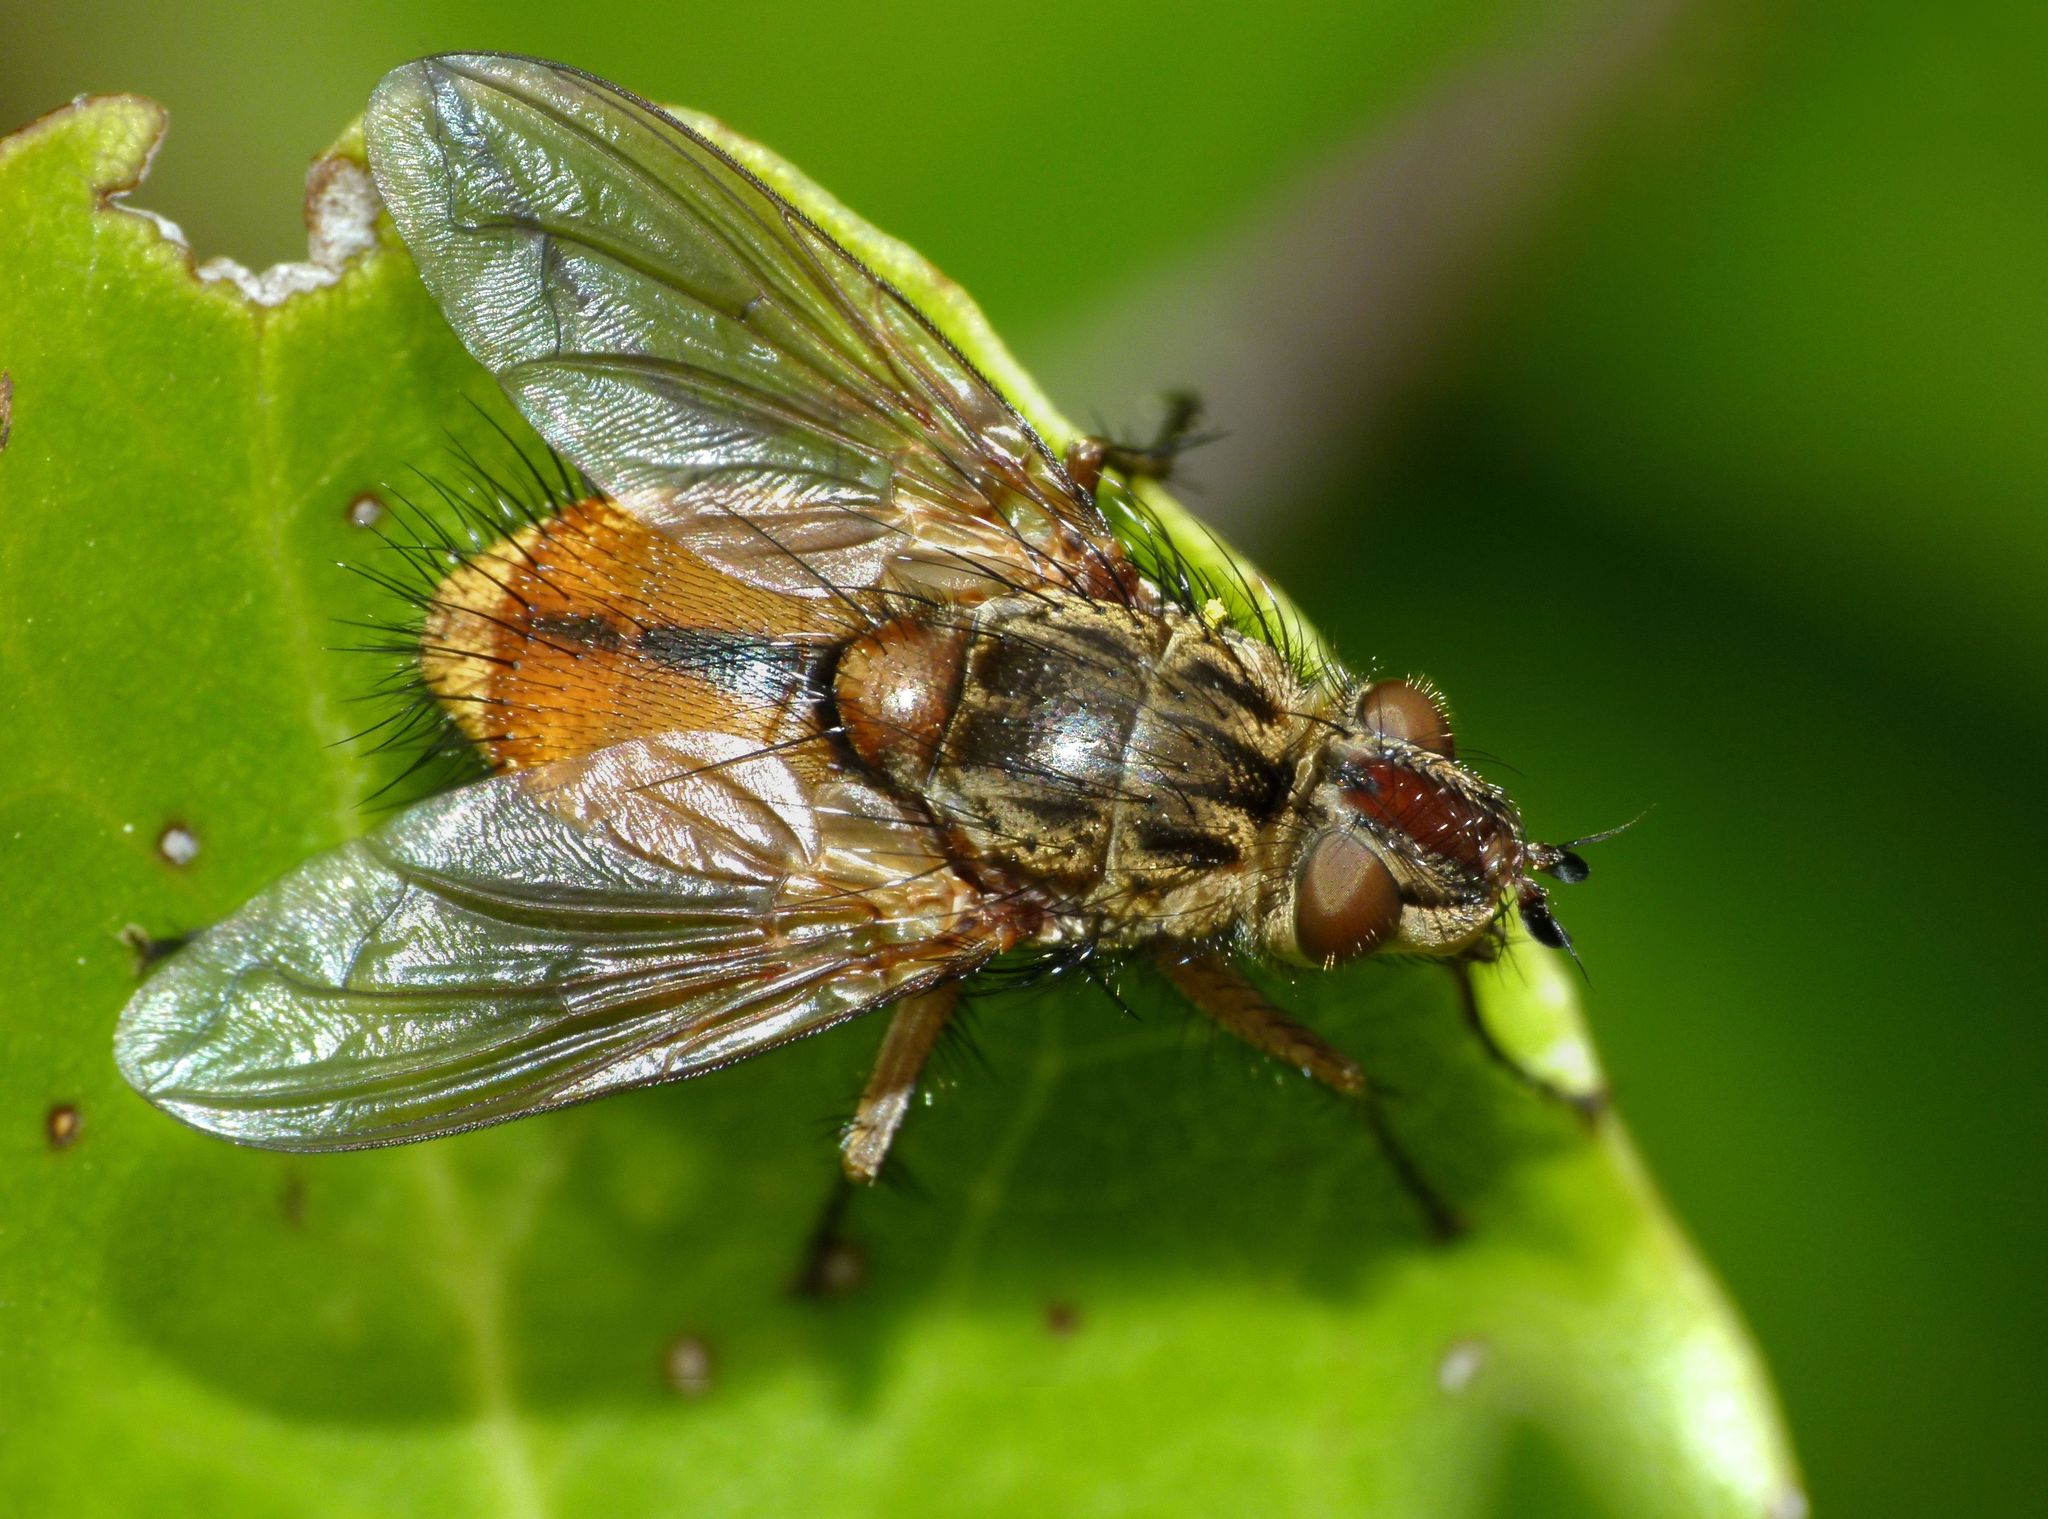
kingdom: Animalia
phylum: Arthropoda
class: Insecta
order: Diptera
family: Tachinidae
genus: Peremptor
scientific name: Peremptor kumaraensis
